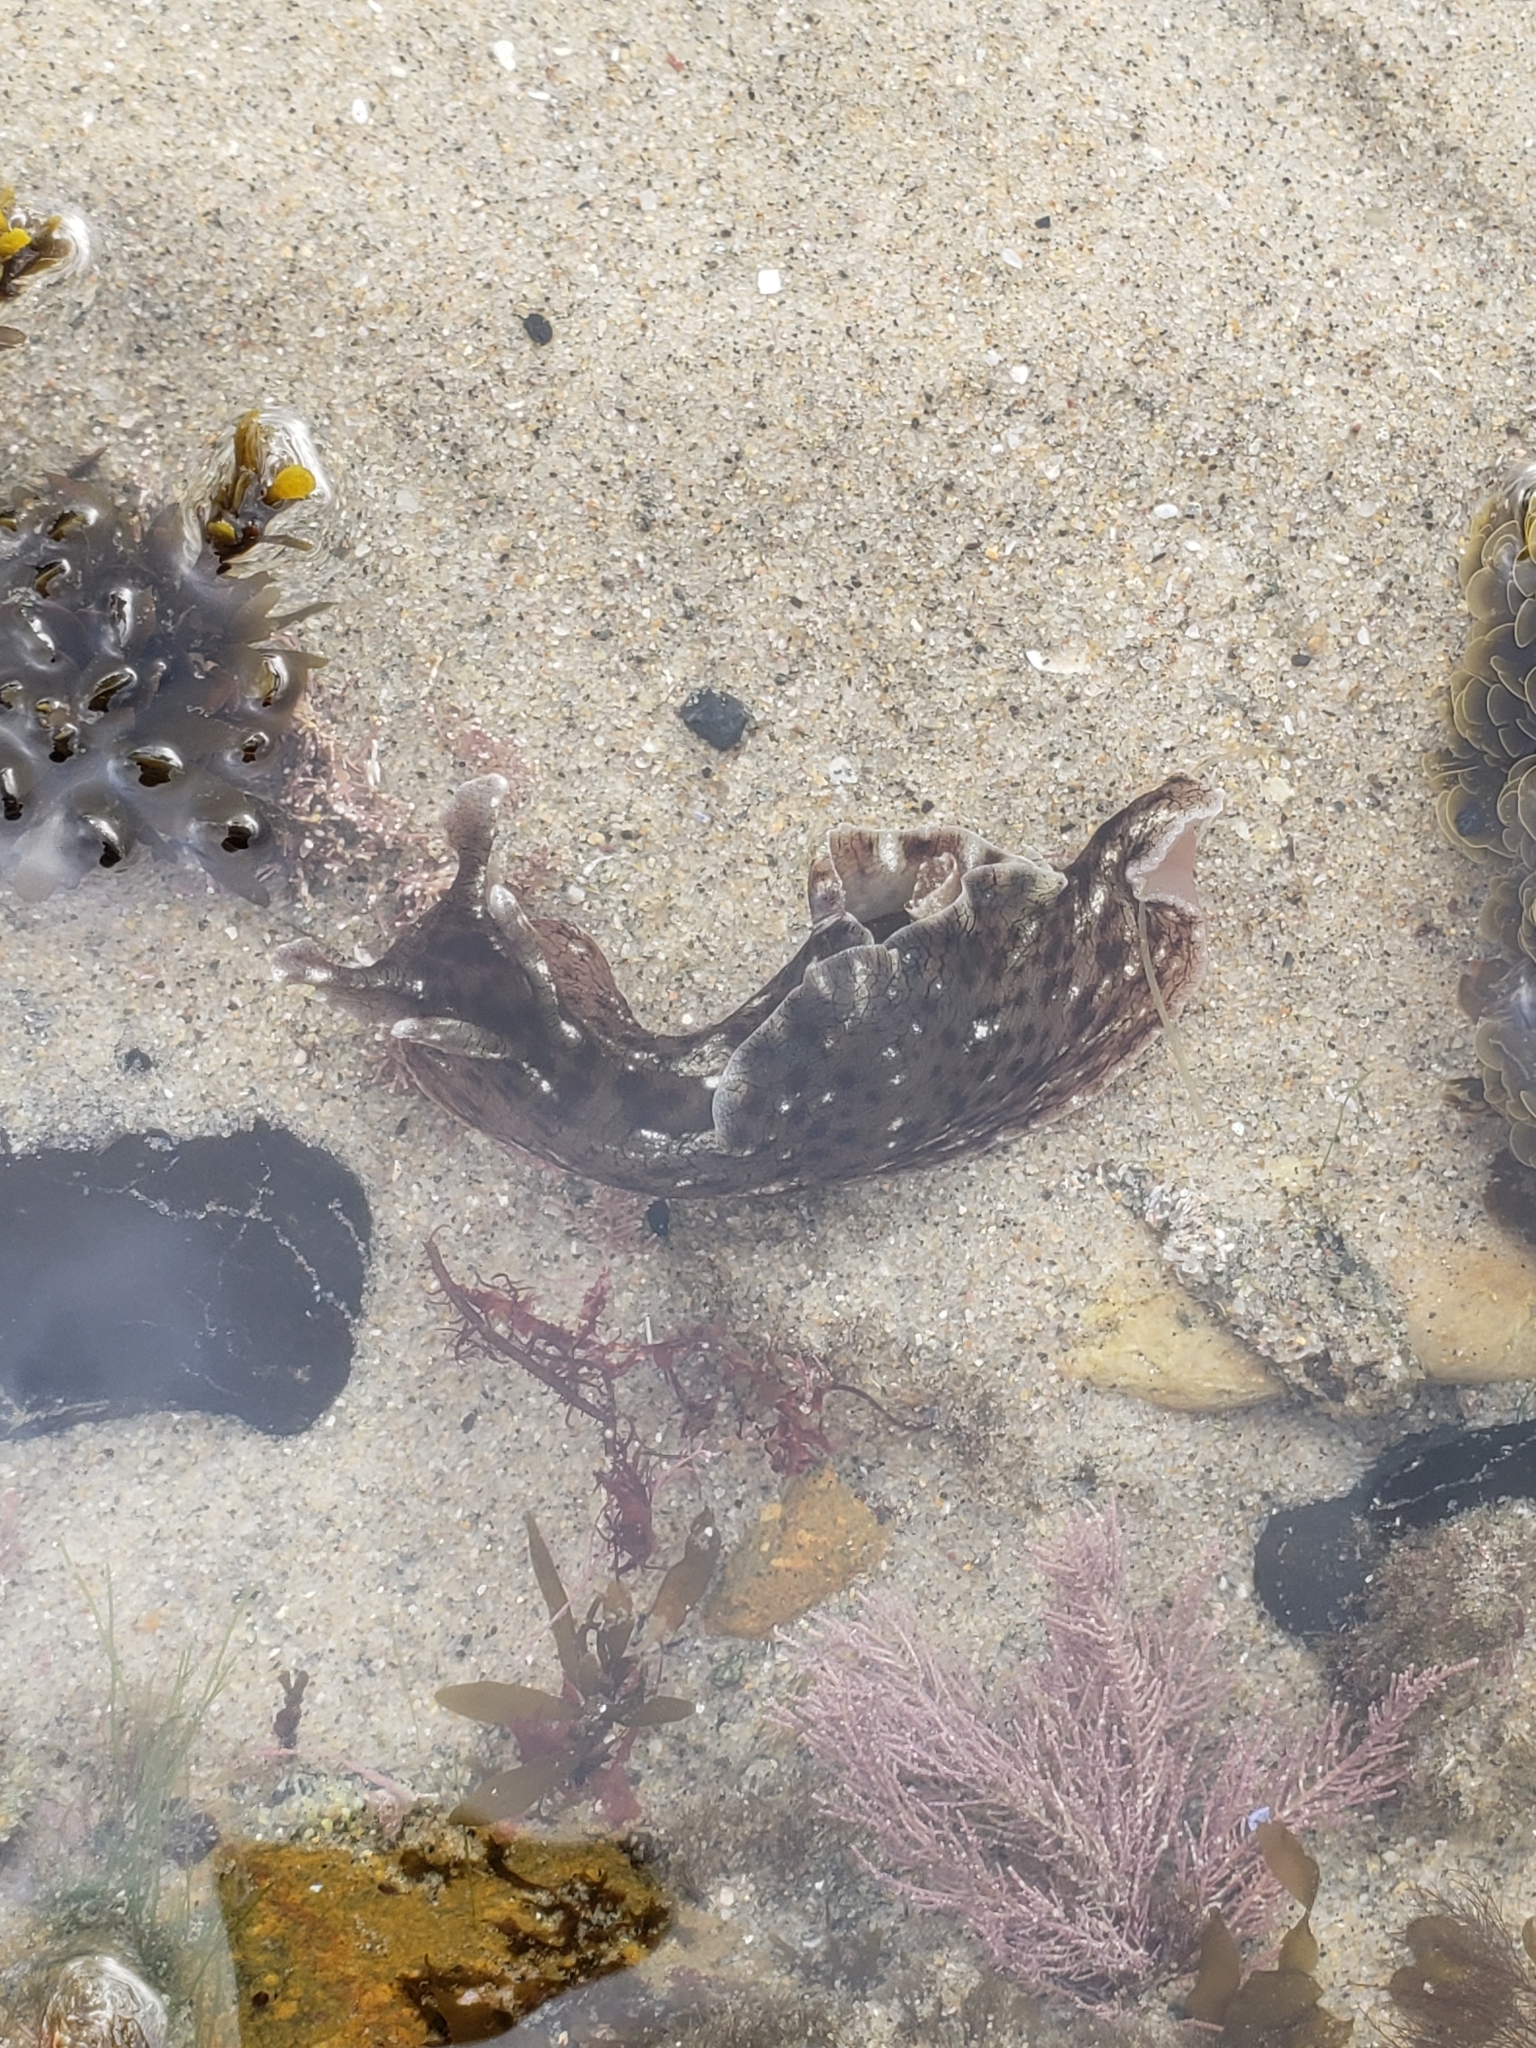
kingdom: Animalia
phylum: Mollusca
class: Gastropoda
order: Aplysiida
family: Aplysiidae
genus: Aplysia
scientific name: Aplysia californica
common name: California seahare
